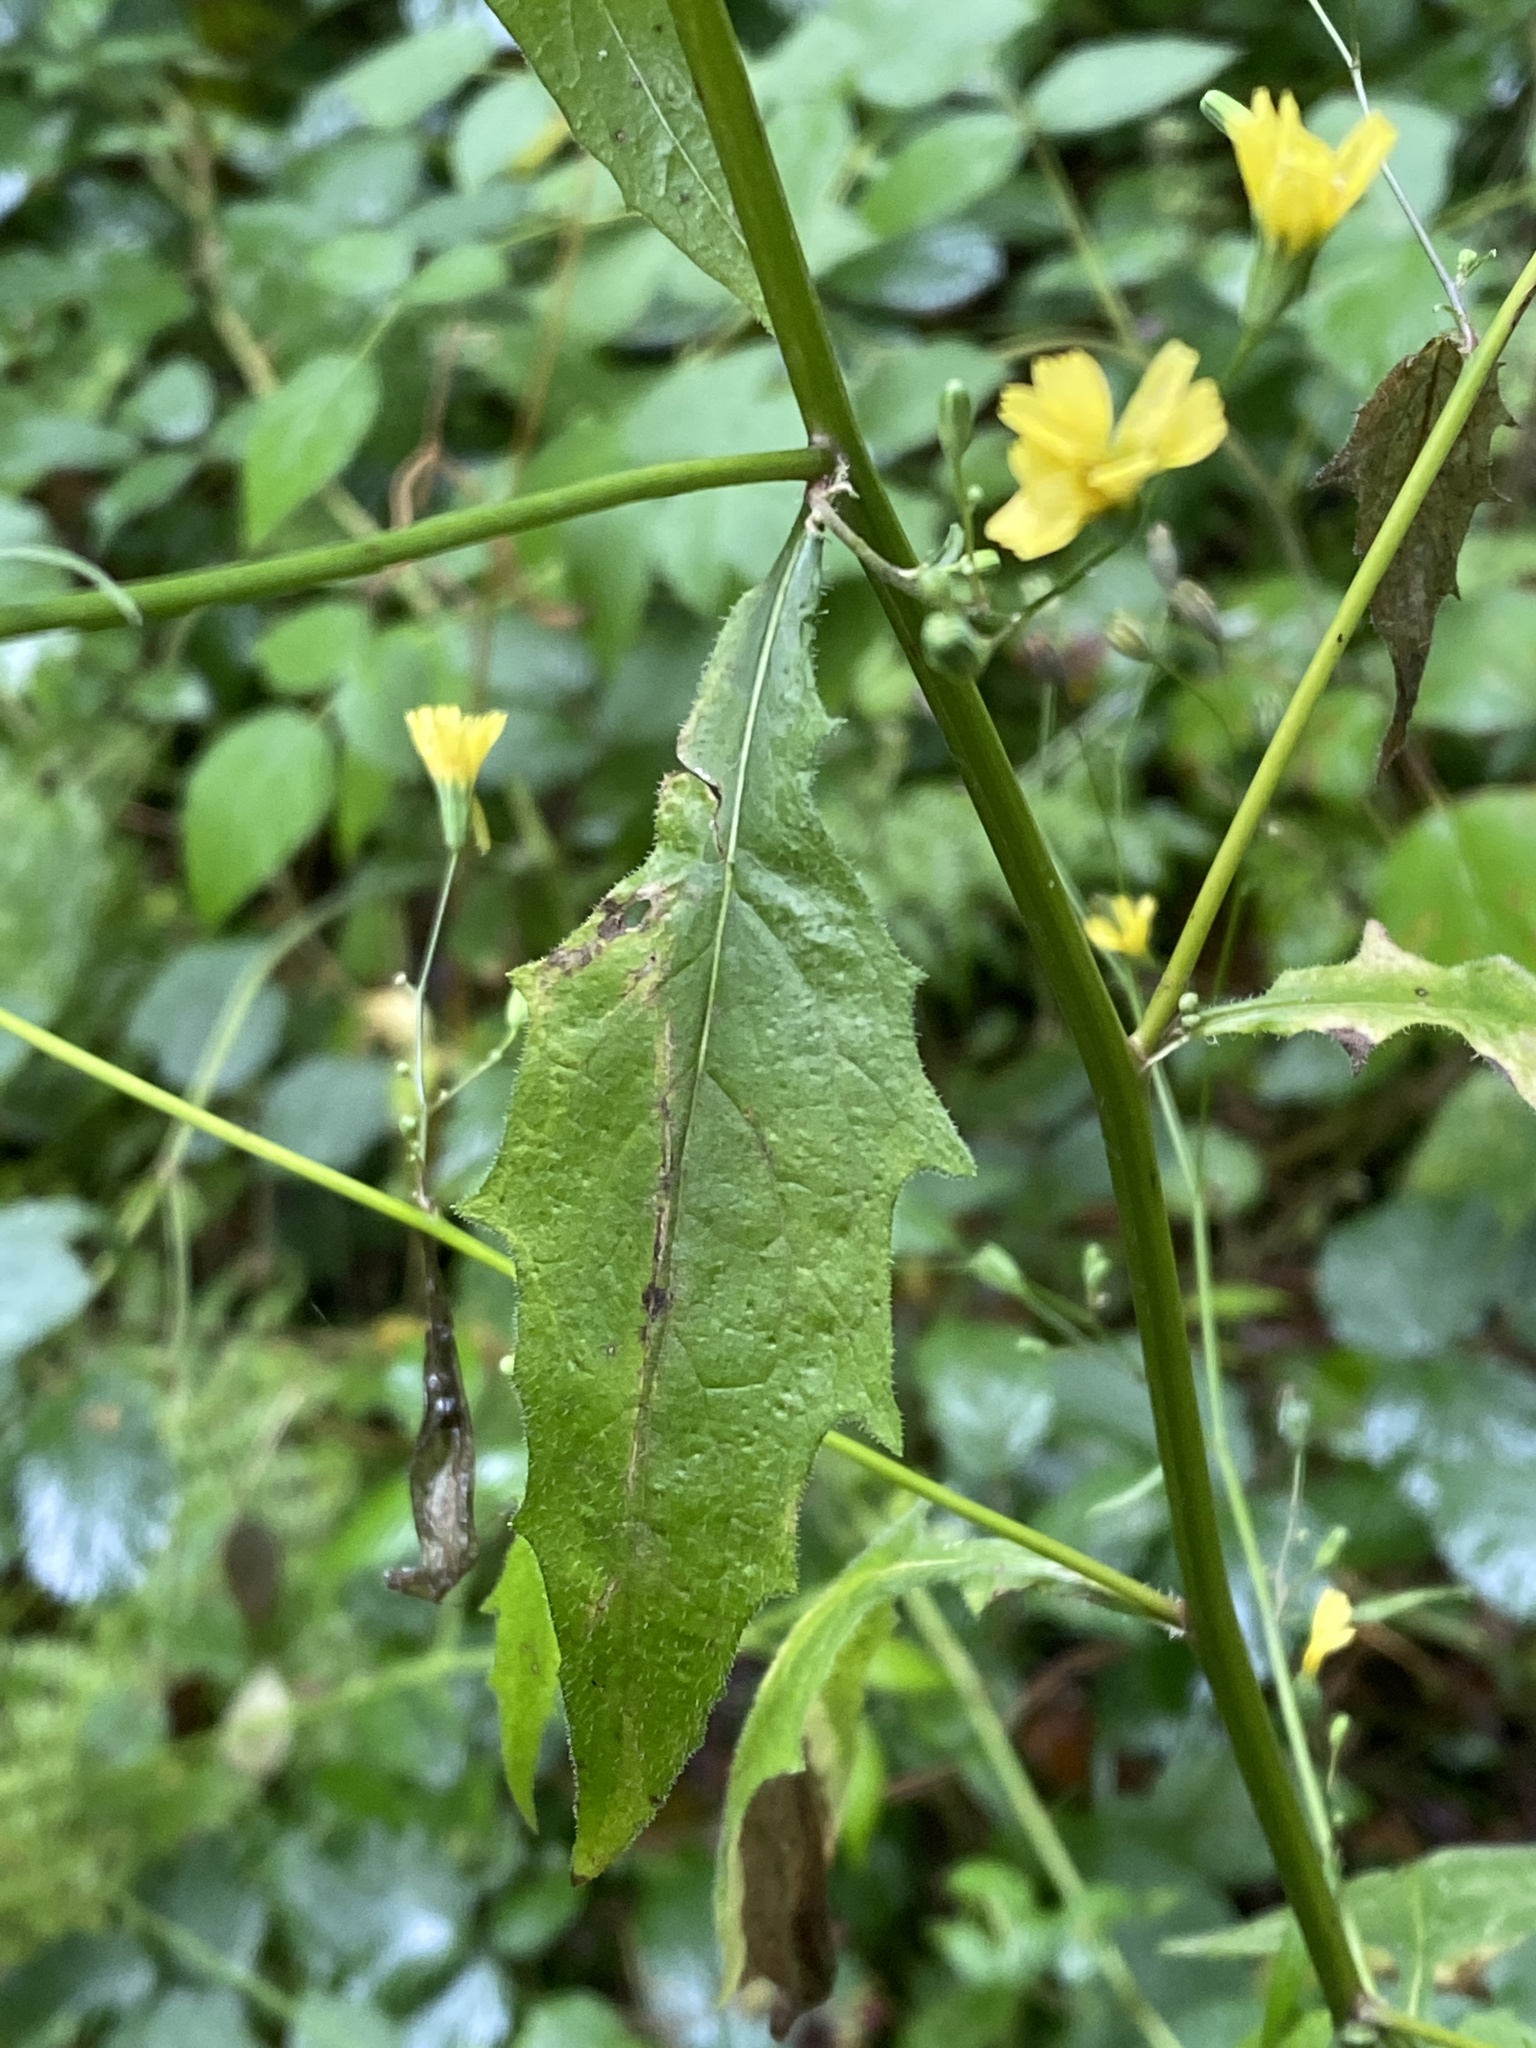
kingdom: Plantae
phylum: Tracheophyta
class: Magnoliopsida
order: Asterales
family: Asteraceae
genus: Lapsana
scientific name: Lapsana communis
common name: Nipplewort
